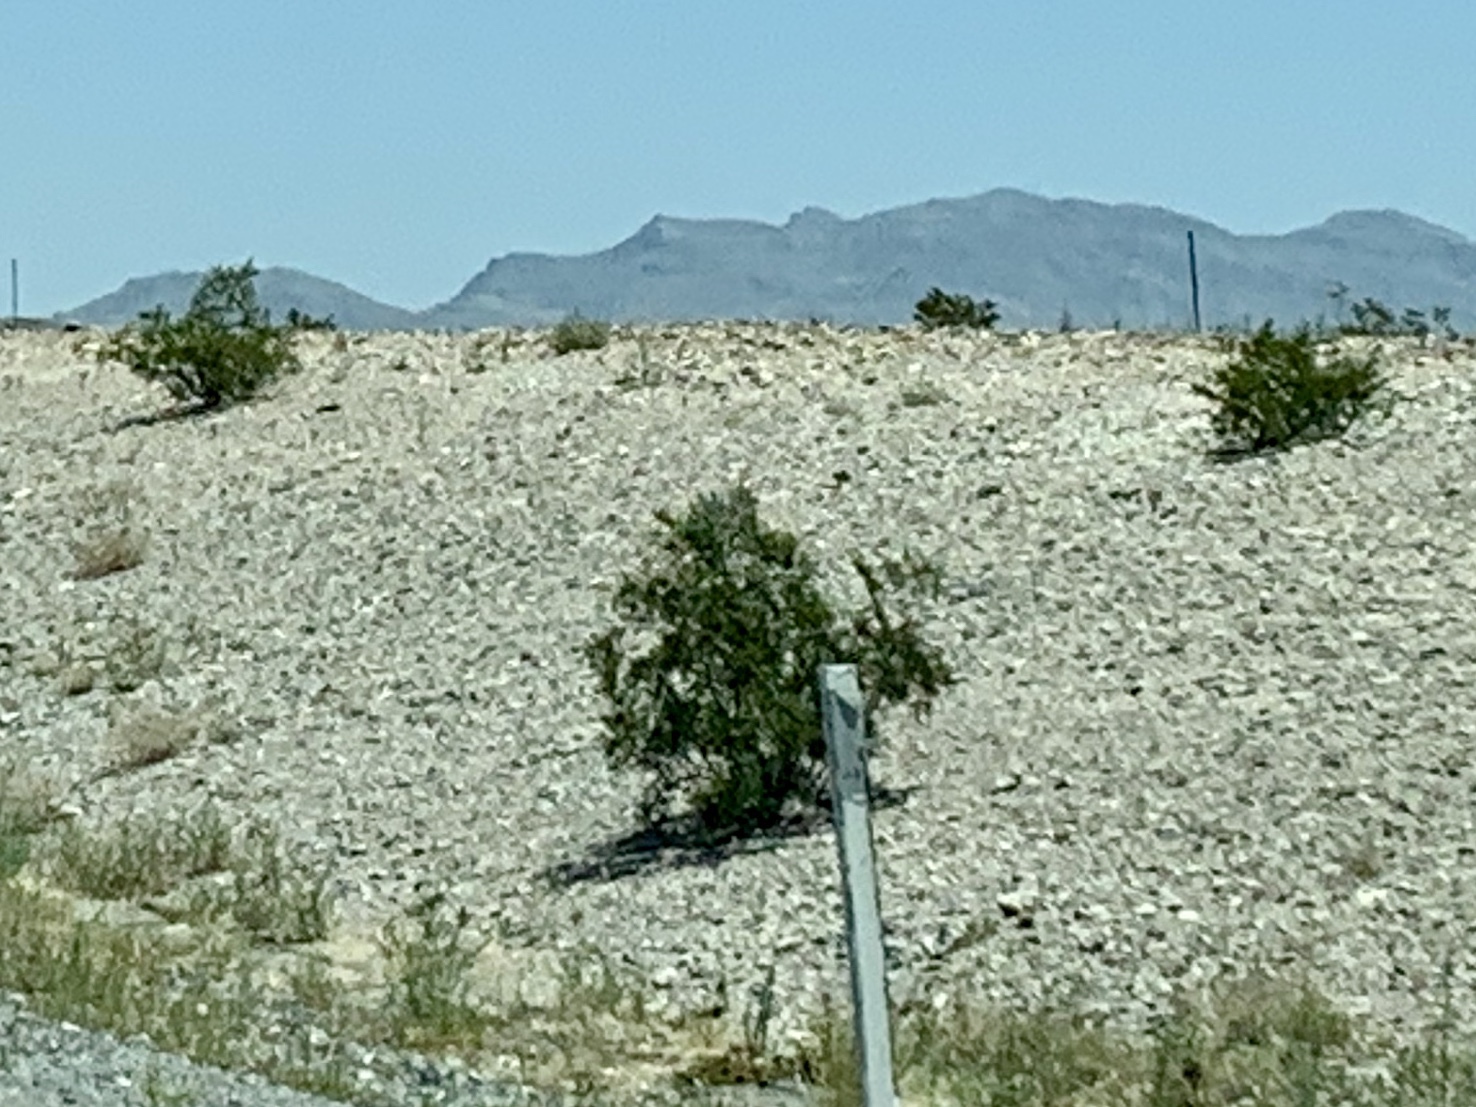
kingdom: Plantae
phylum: Tracheophyta
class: Magnoliopsida
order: Zygophyllales
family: Zygophyllaceae
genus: Larrea
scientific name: Larrea tridentata
